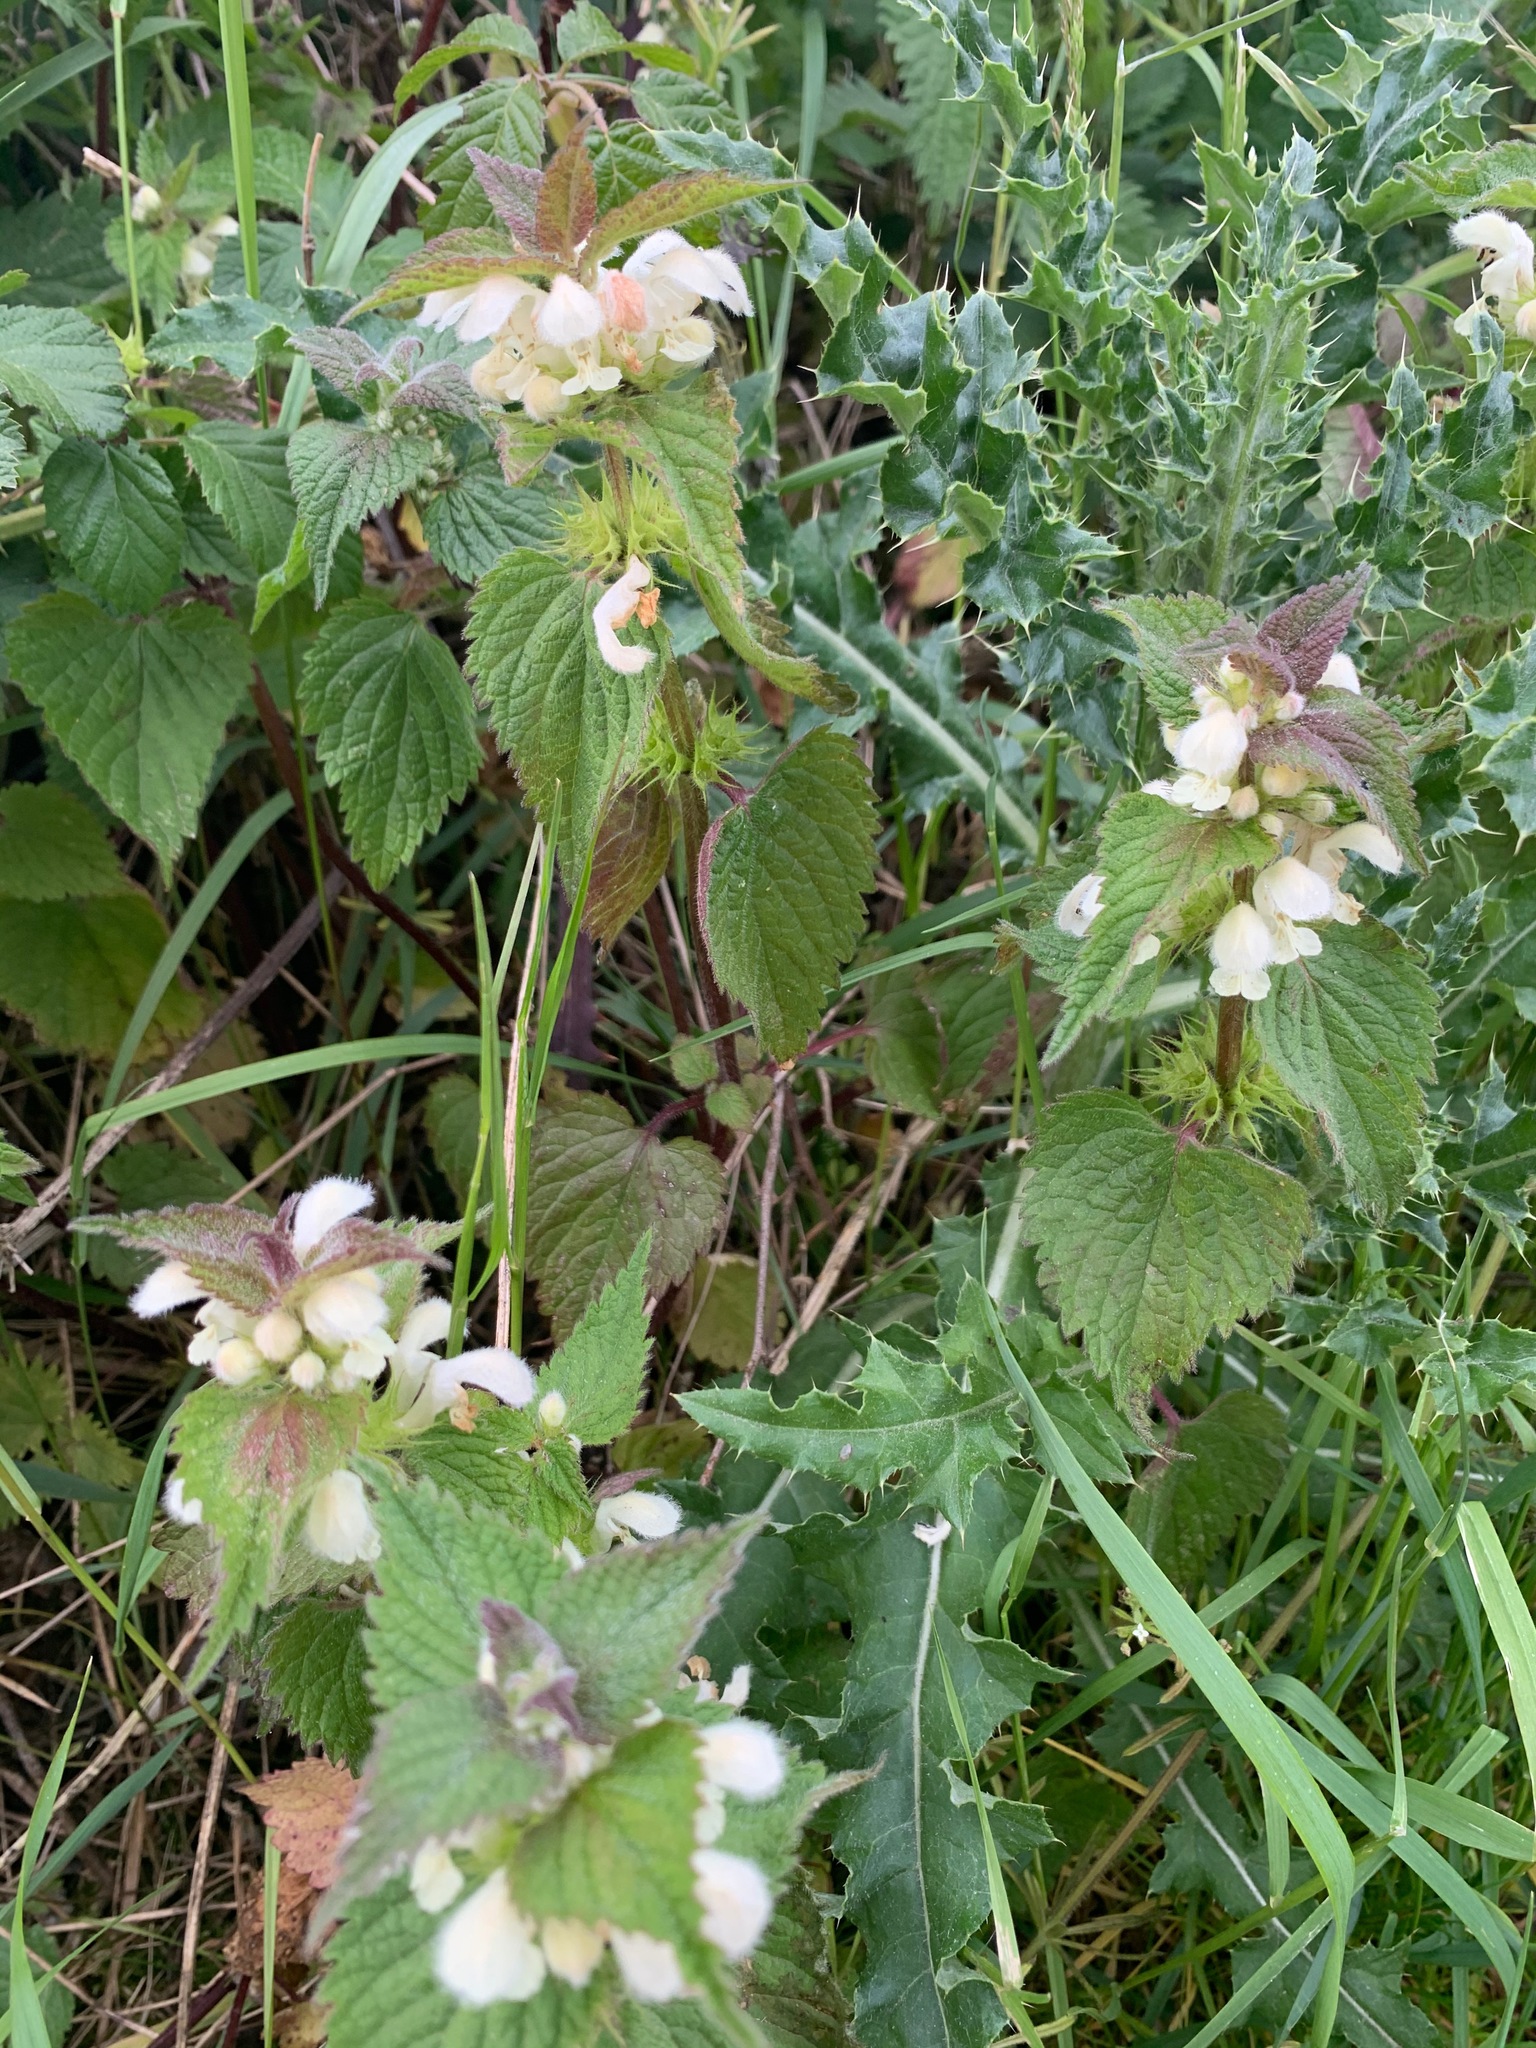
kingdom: Plantae
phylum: Tracheophyta
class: Magnoliopsida
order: Lamiales
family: Lamiaceae
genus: Lamium
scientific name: Lamium album
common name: White dead-nettle
